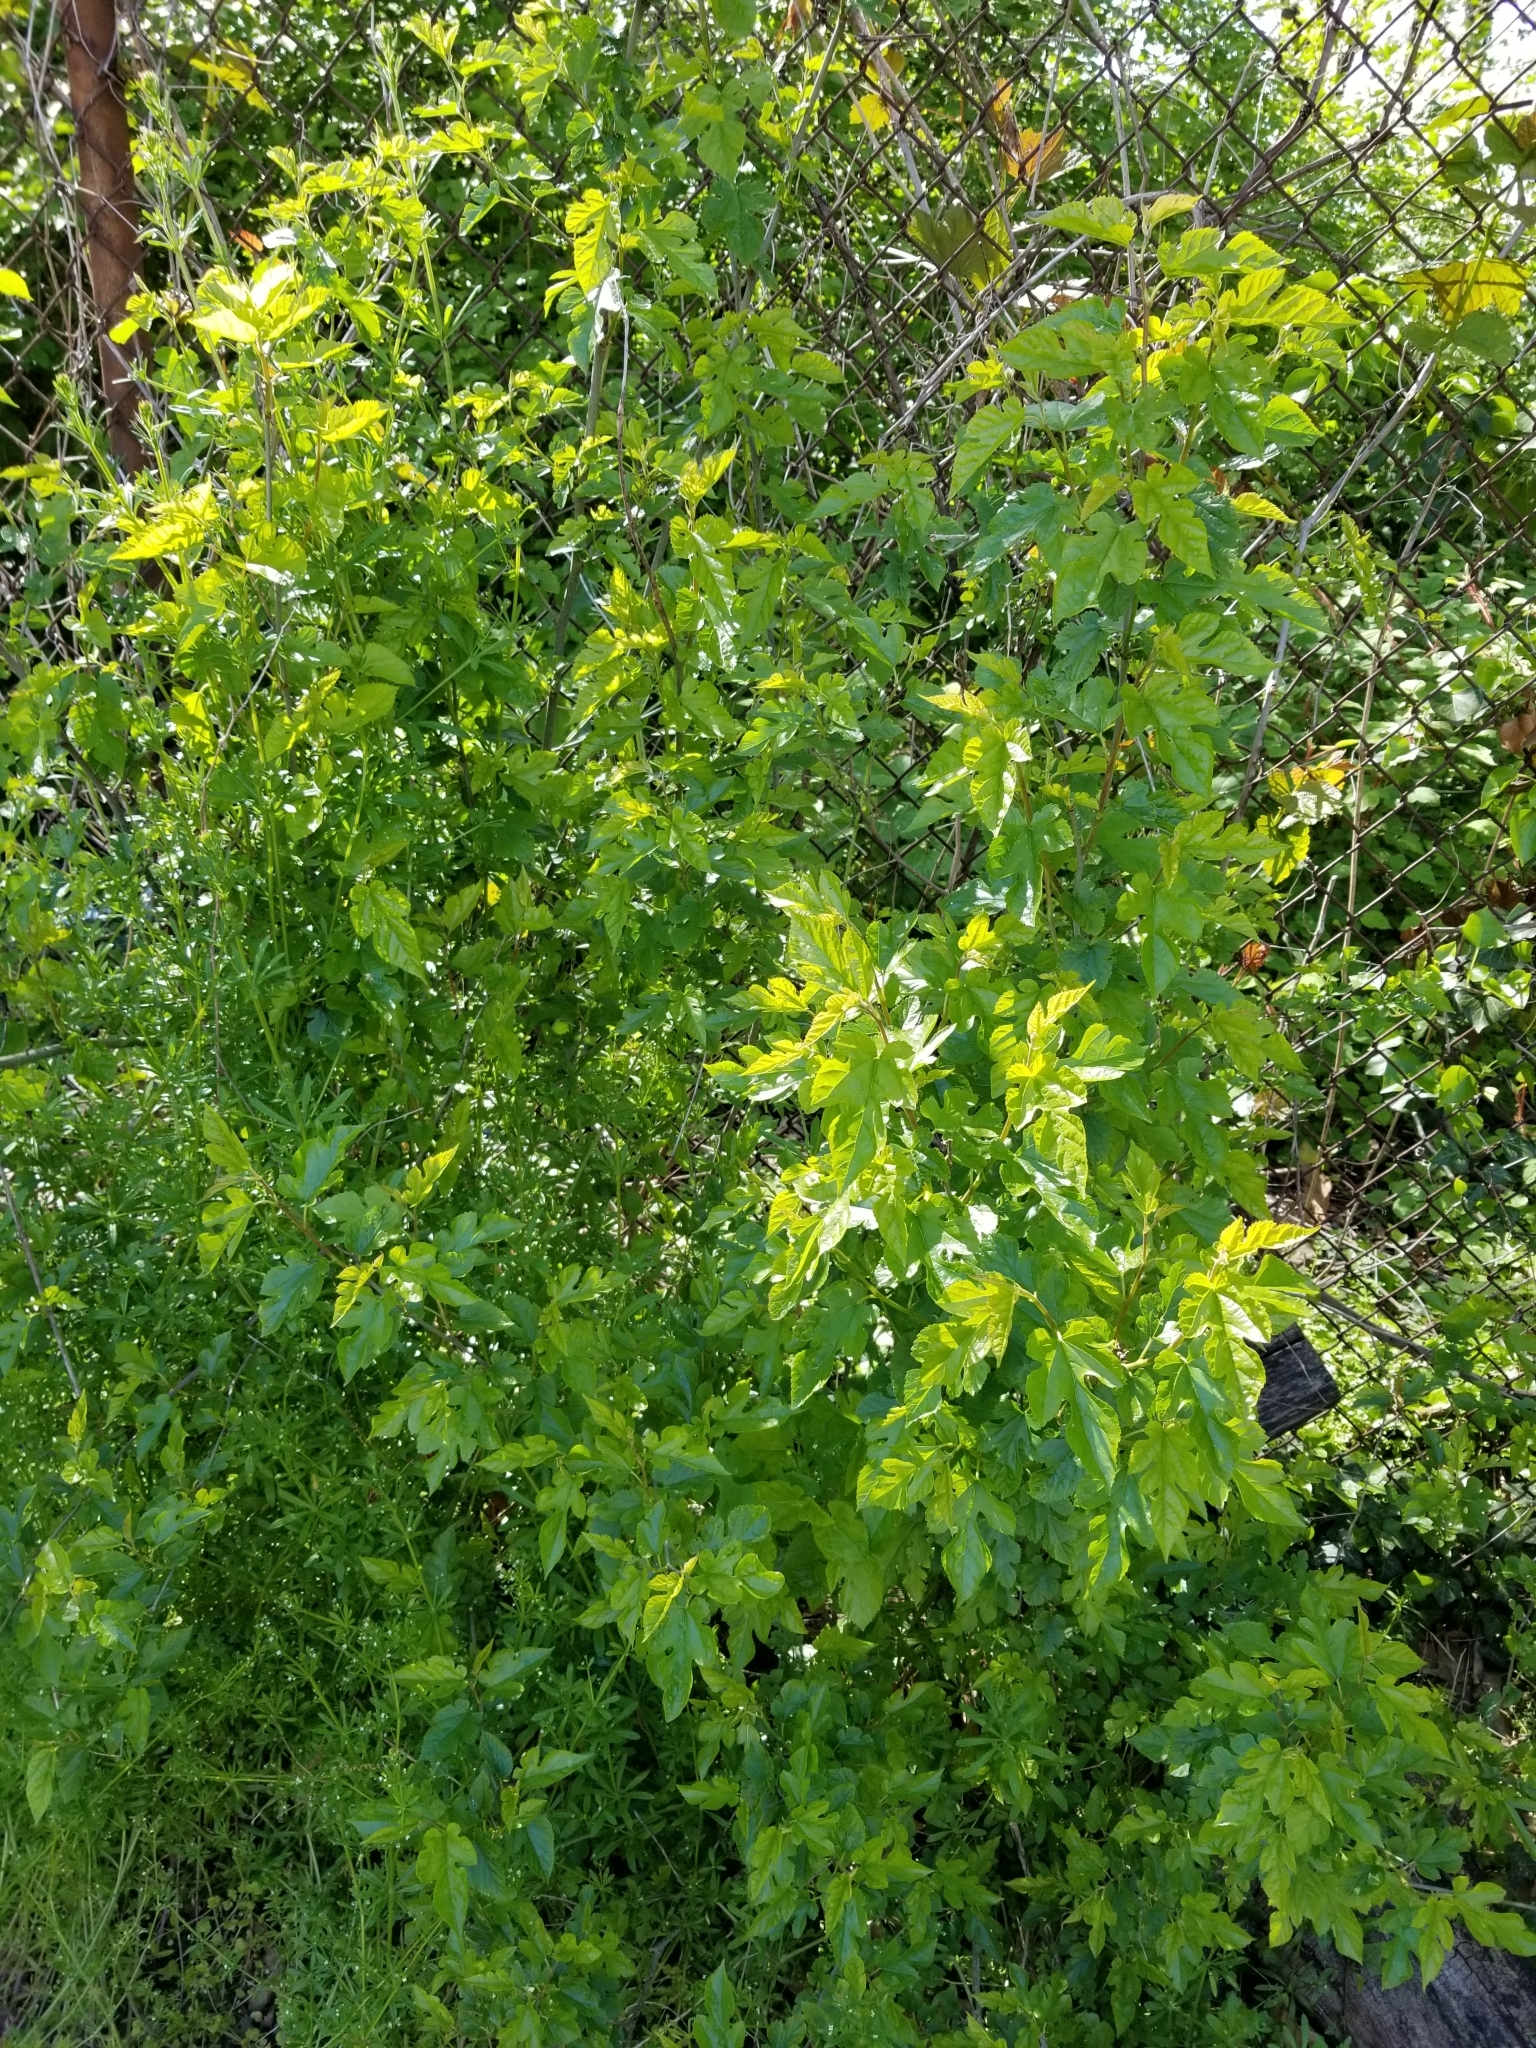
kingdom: Plantae
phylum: Tracheophyta
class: Magnoliopsida
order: Rosales
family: Moraceae
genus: Morus
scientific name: Morus alba
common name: White mulberry
